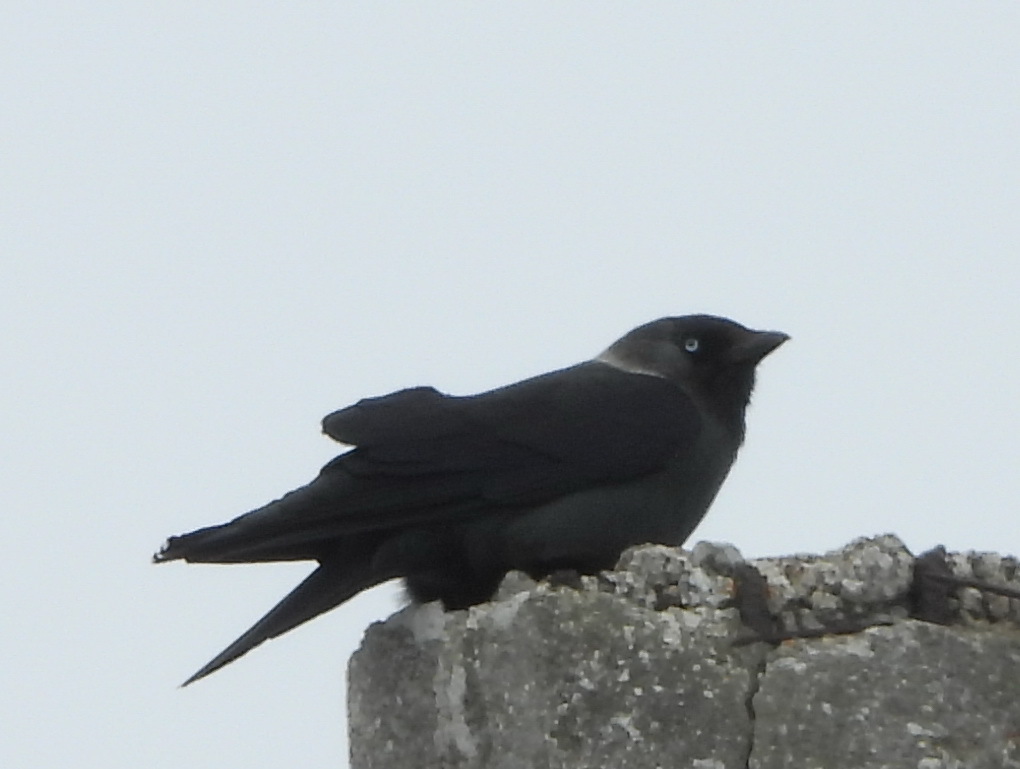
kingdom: Animalia
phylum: Chordata
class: Aves
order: Passeriformes
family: Corvidae
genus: Coloeus
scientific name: Coloeus monedula
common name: Western jackdaw
